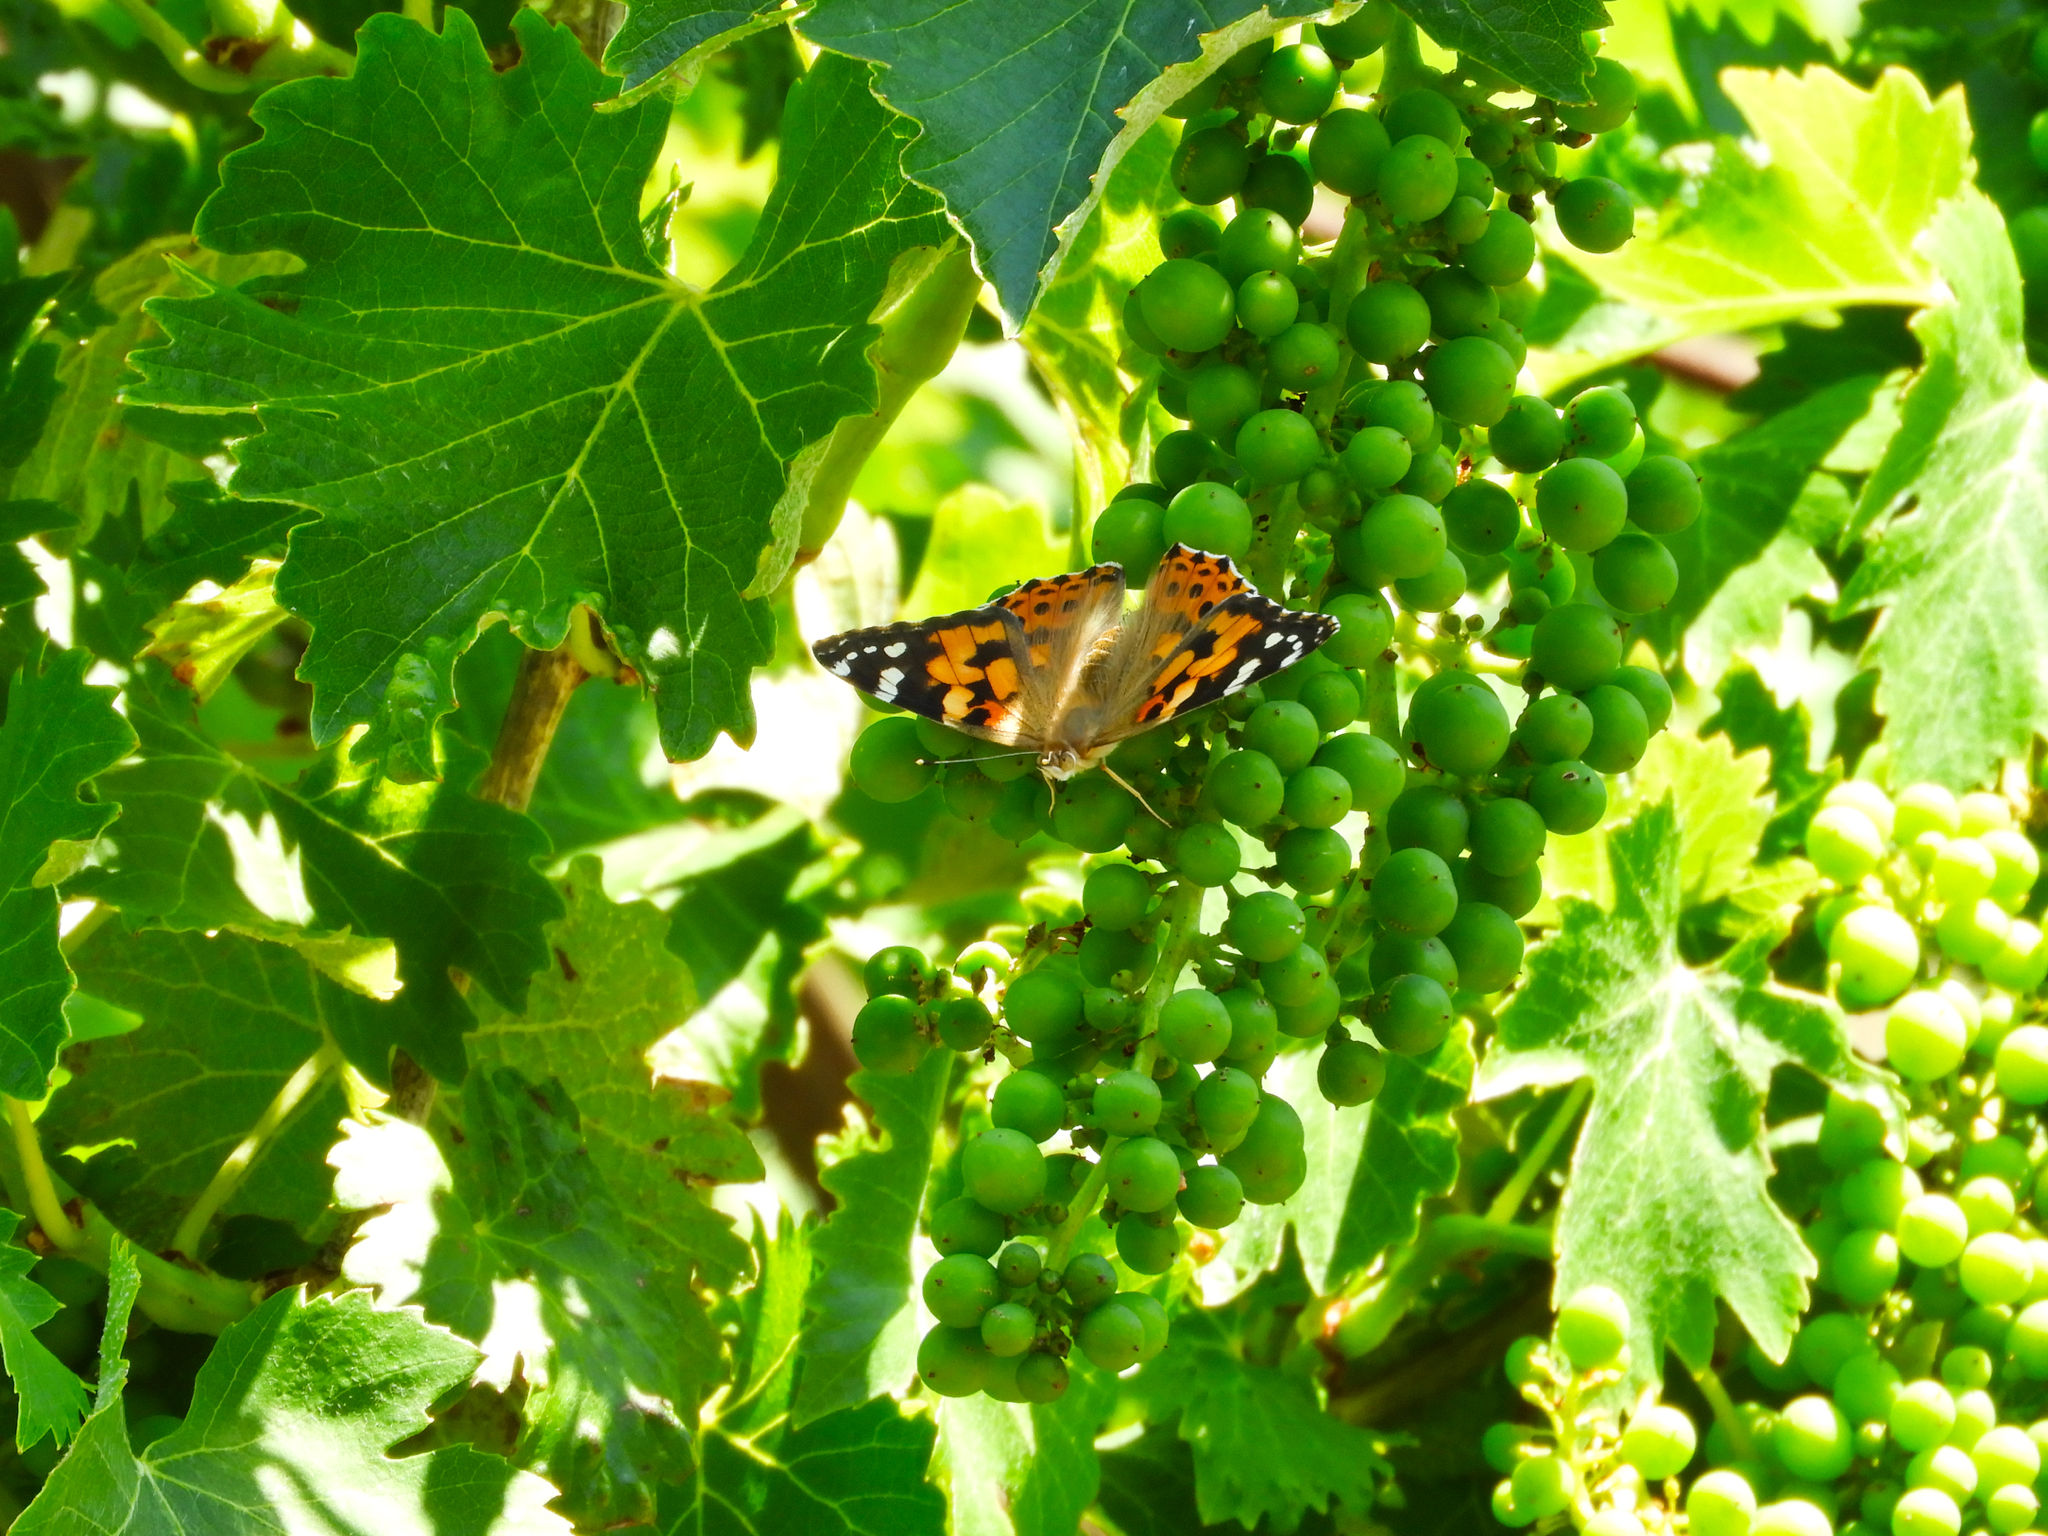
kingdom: Animalia
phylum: Arthropoda
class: Insecta
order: Lepidoptera
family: Nymphalidae
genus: Vanessa
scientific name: Vanessa cardui
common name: Painted lady
